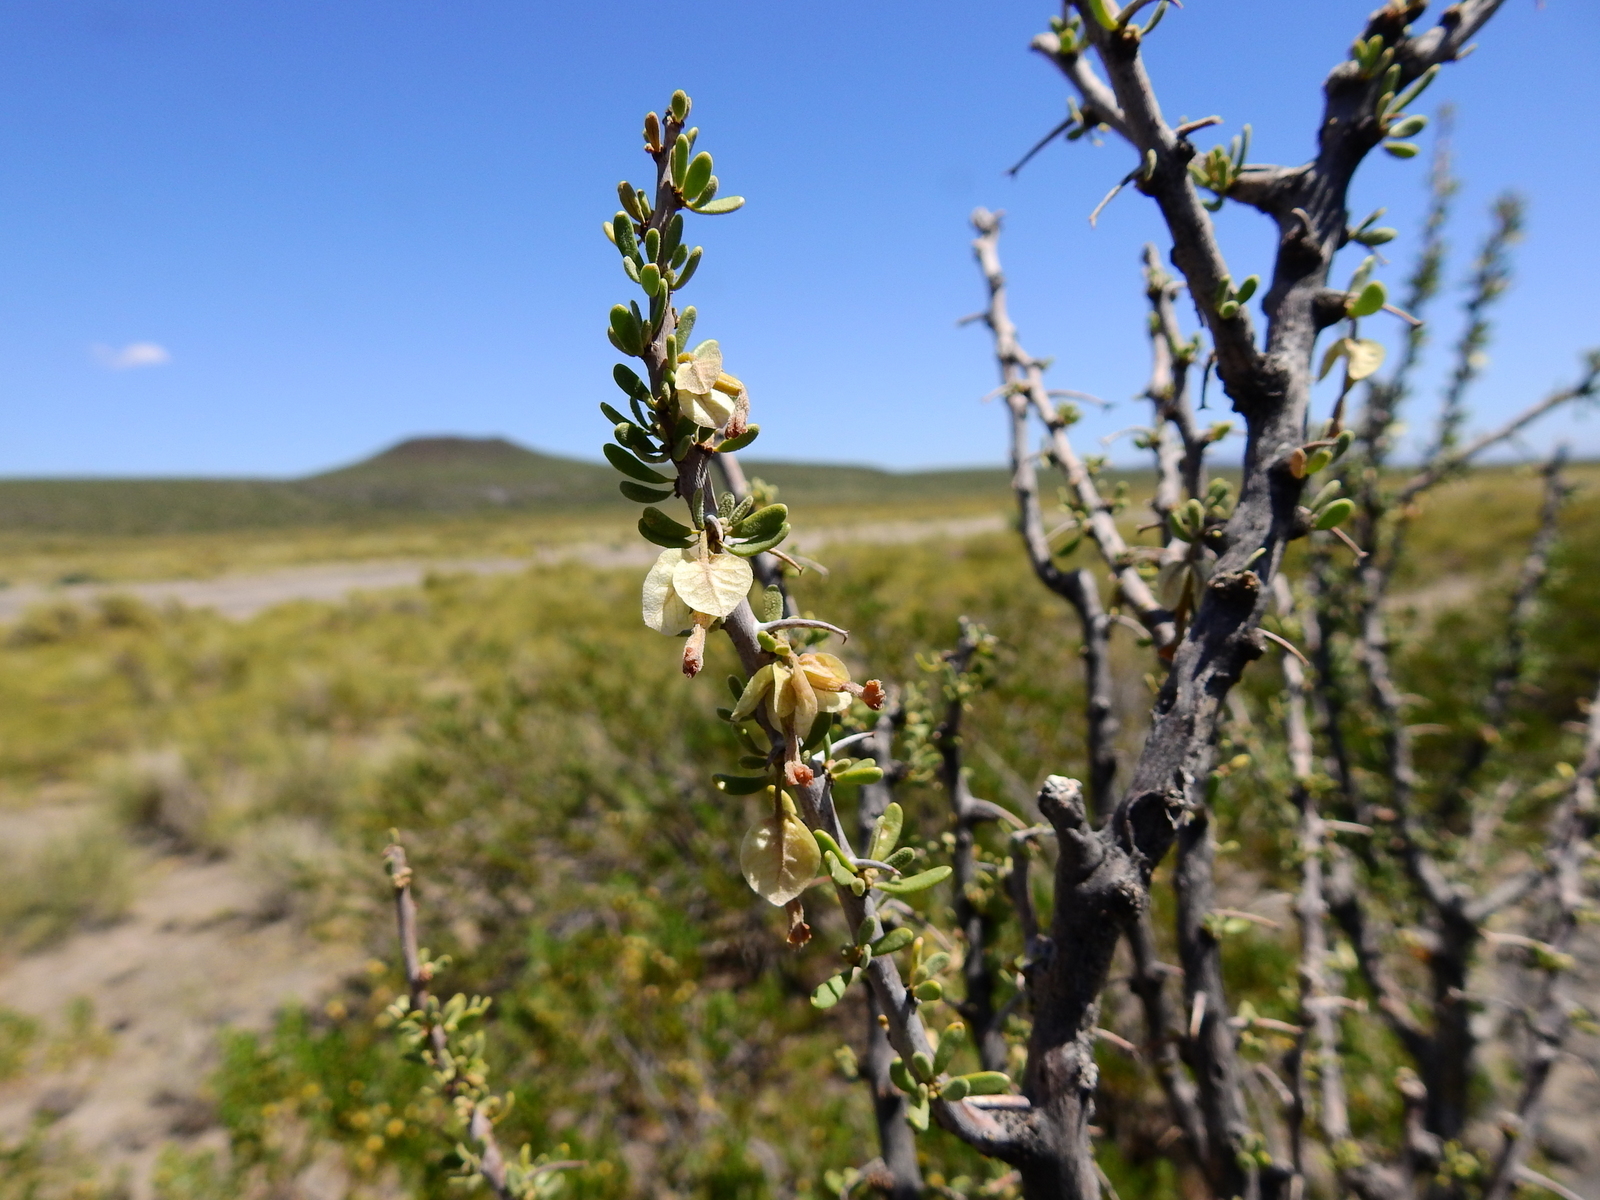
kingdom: Plantae
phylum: Tracheophyta
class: Magnoliopsida
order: Caryophyllales
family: Nyctaginaceae
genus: Bougainvillea
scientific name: Bougainvillea spinosa
